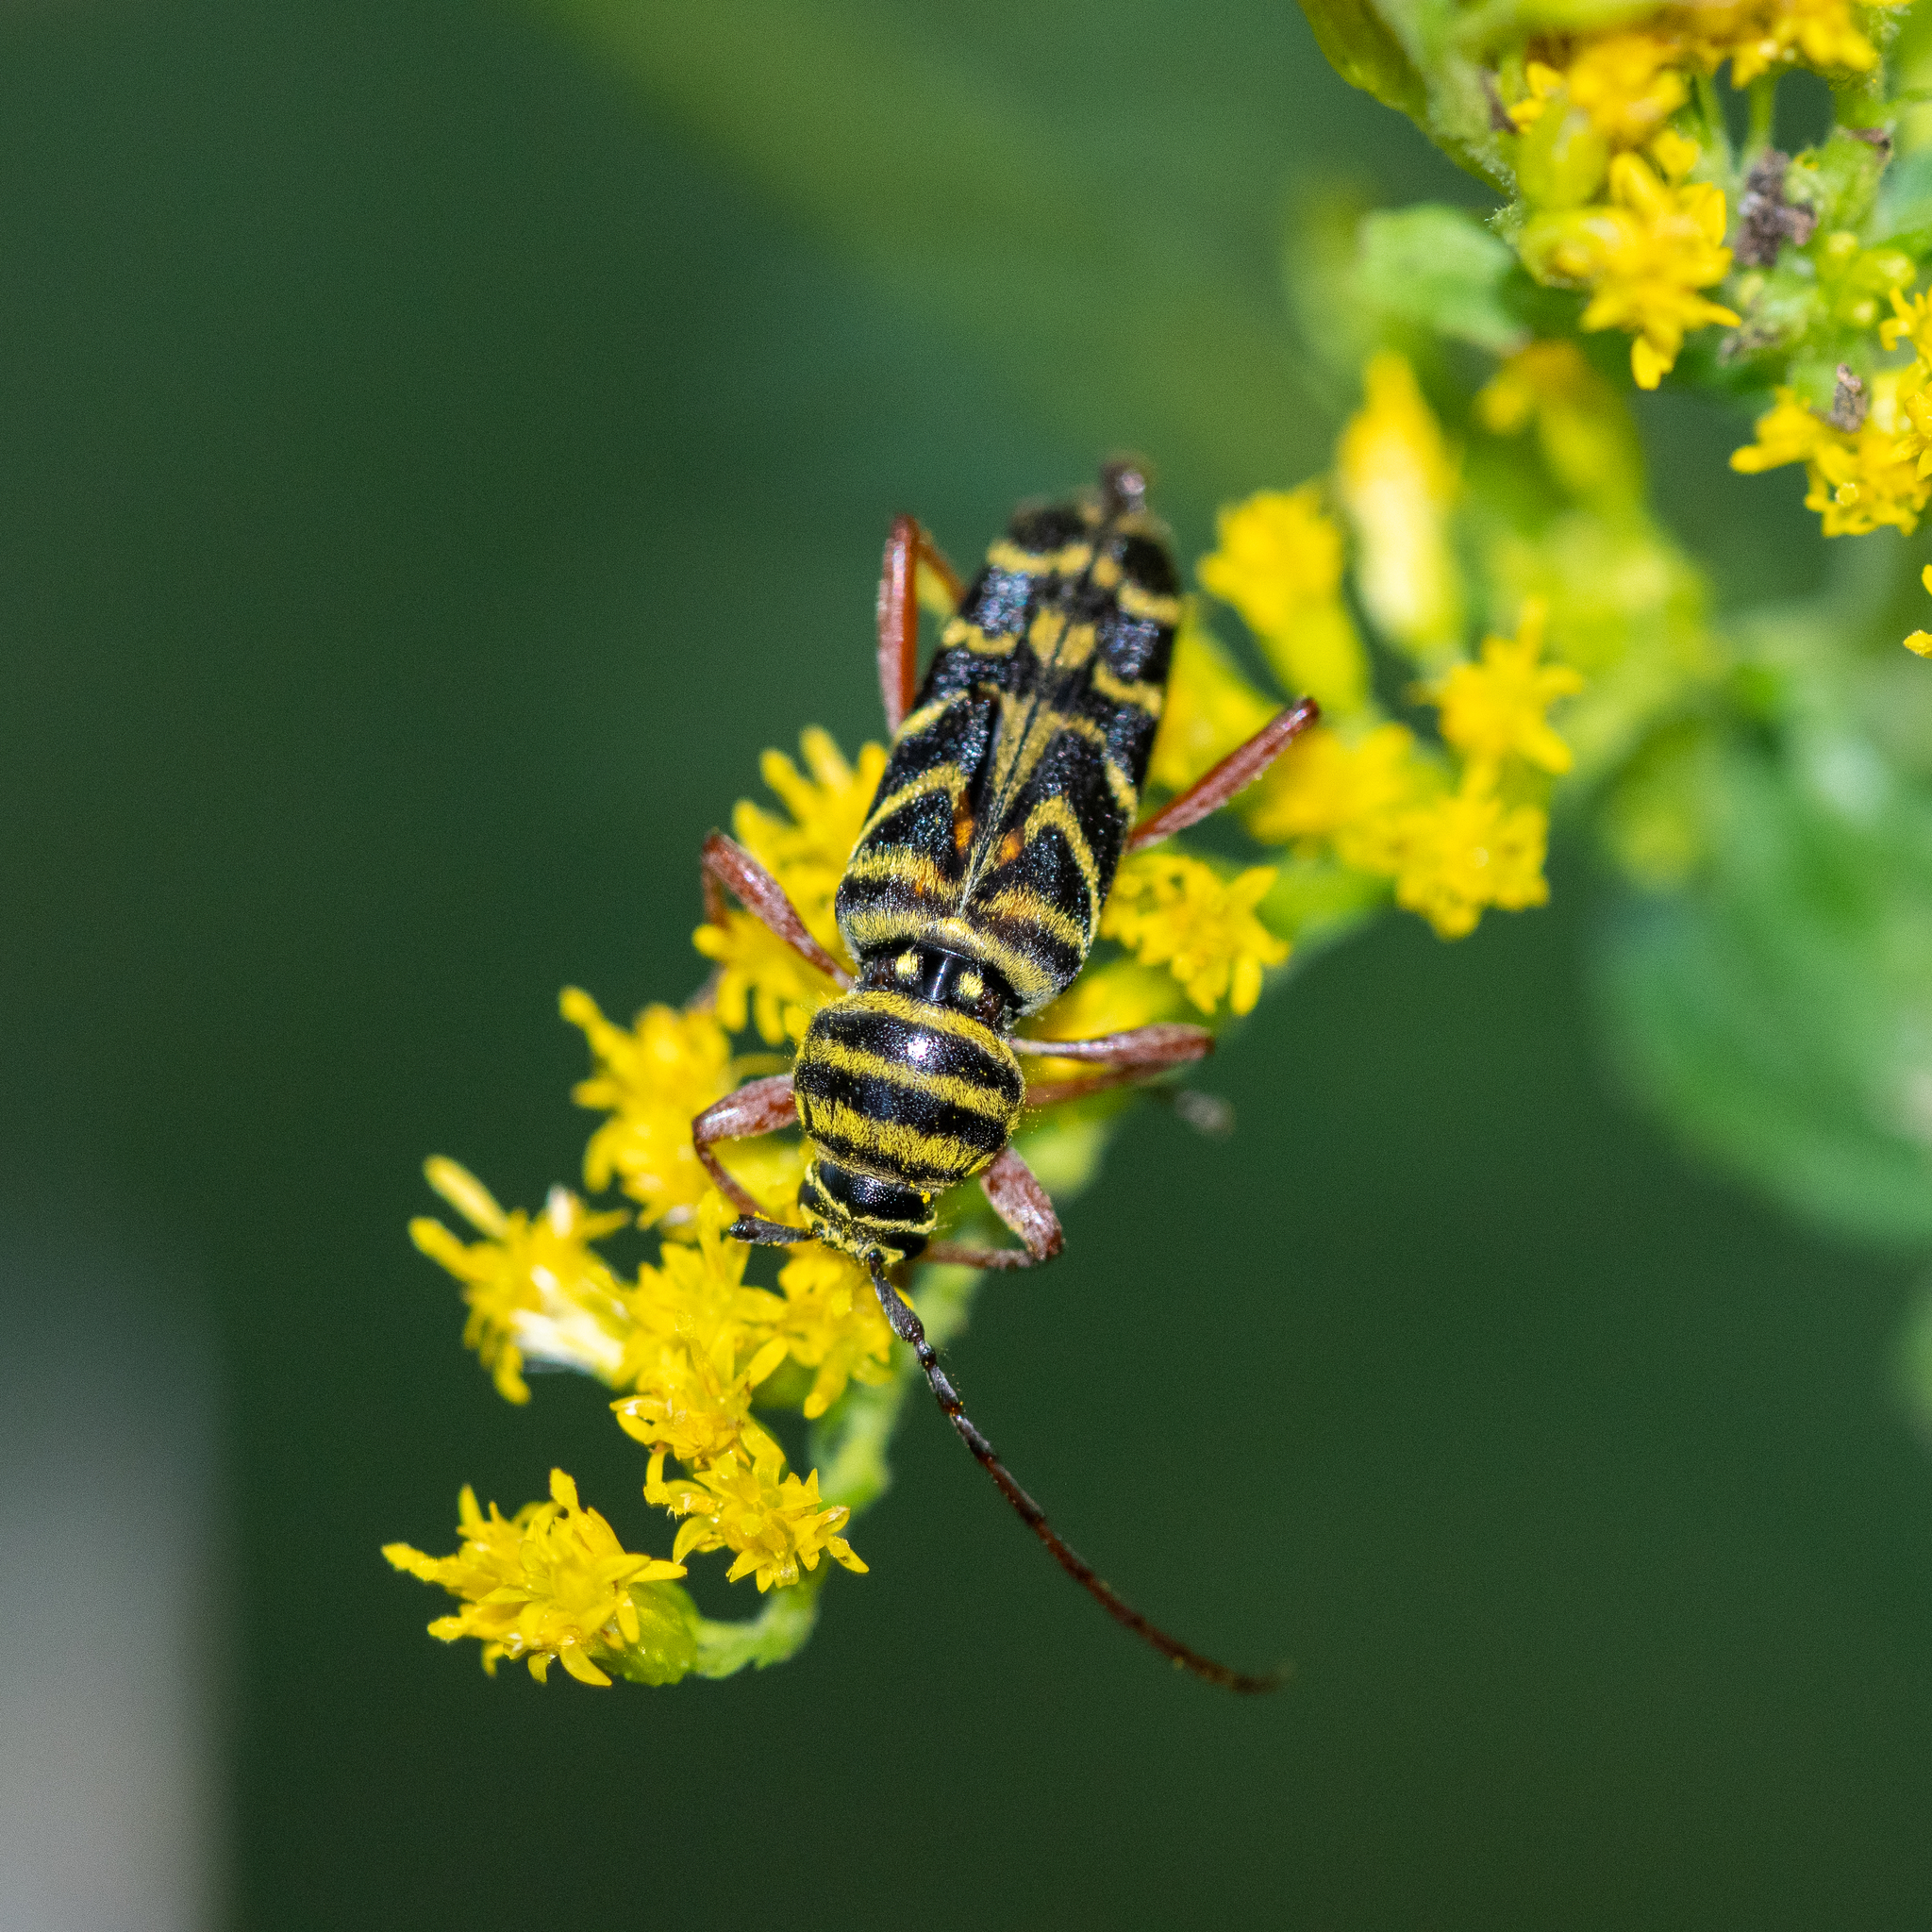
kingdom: Animalia
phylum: Arthropoda
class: Insecta
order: Coleoptera
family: Cerambycidae
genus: Megacyllene
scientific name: Megacyllene robiniae
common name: Locust borer
